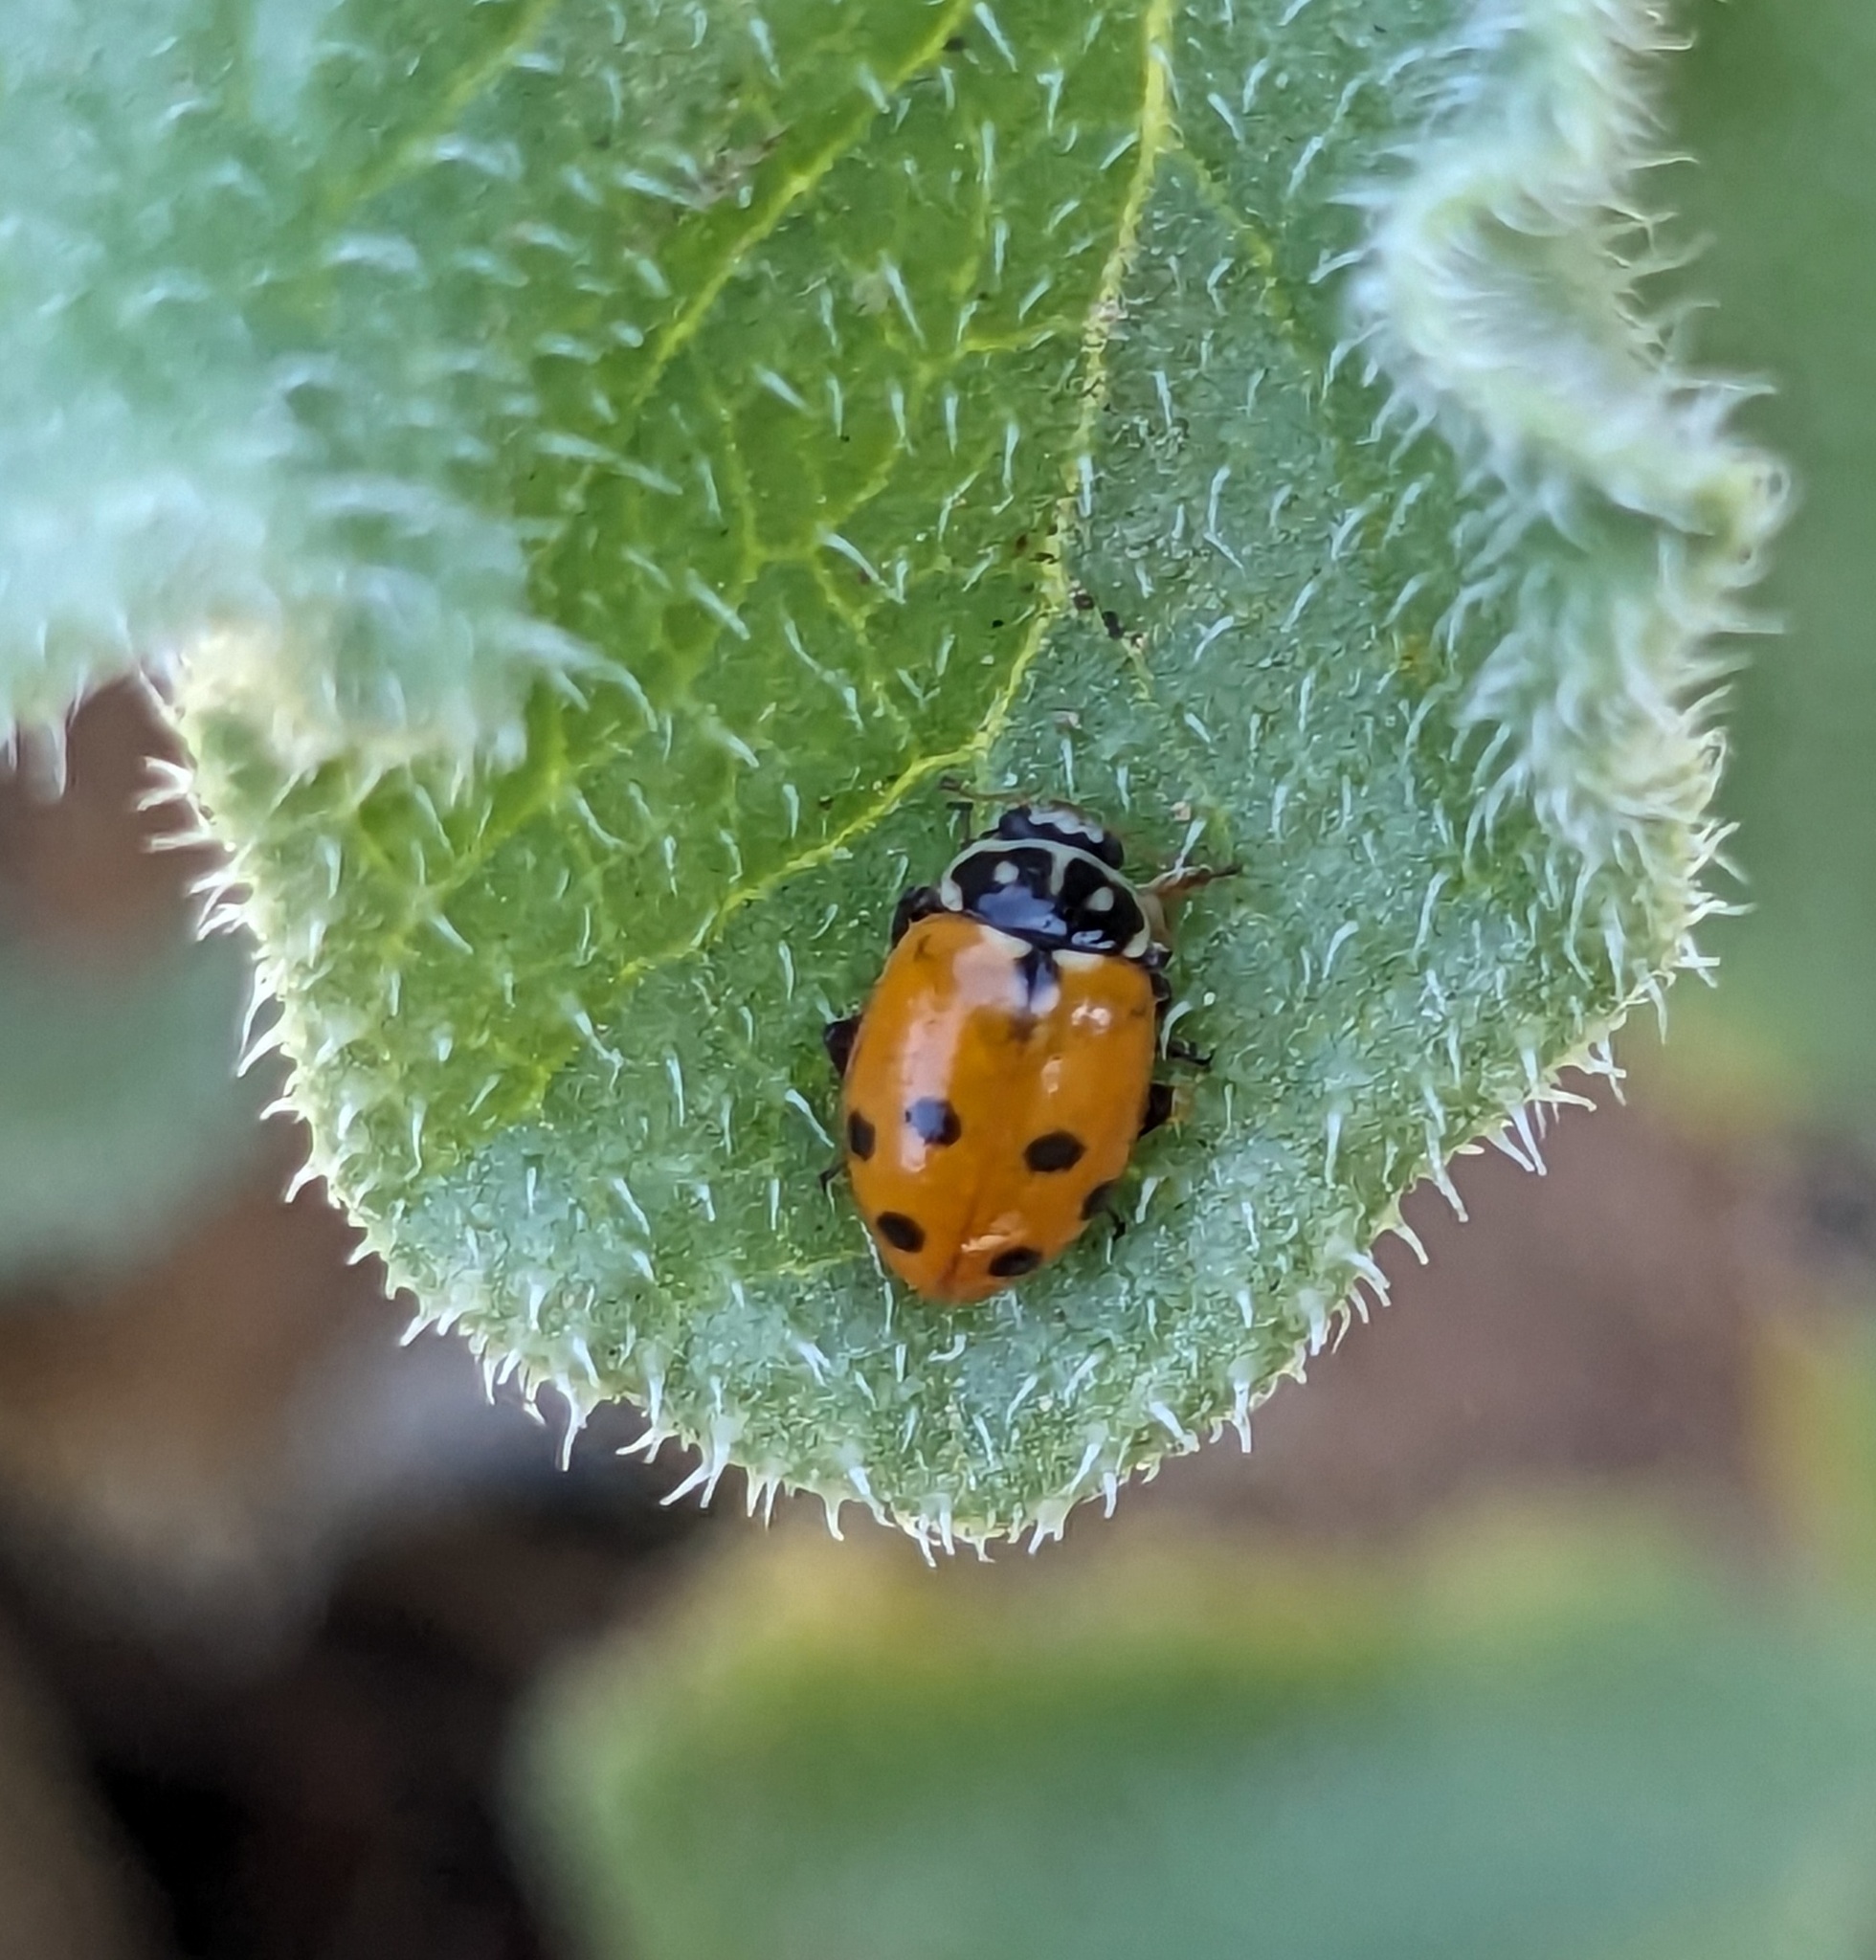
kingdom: Animalia
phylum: Arthropoda
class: Insecta
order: Coleoptera
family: Coccinellidae
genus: Hippodamia
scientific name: Hippodamia variegata
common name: Ladybird beetle
